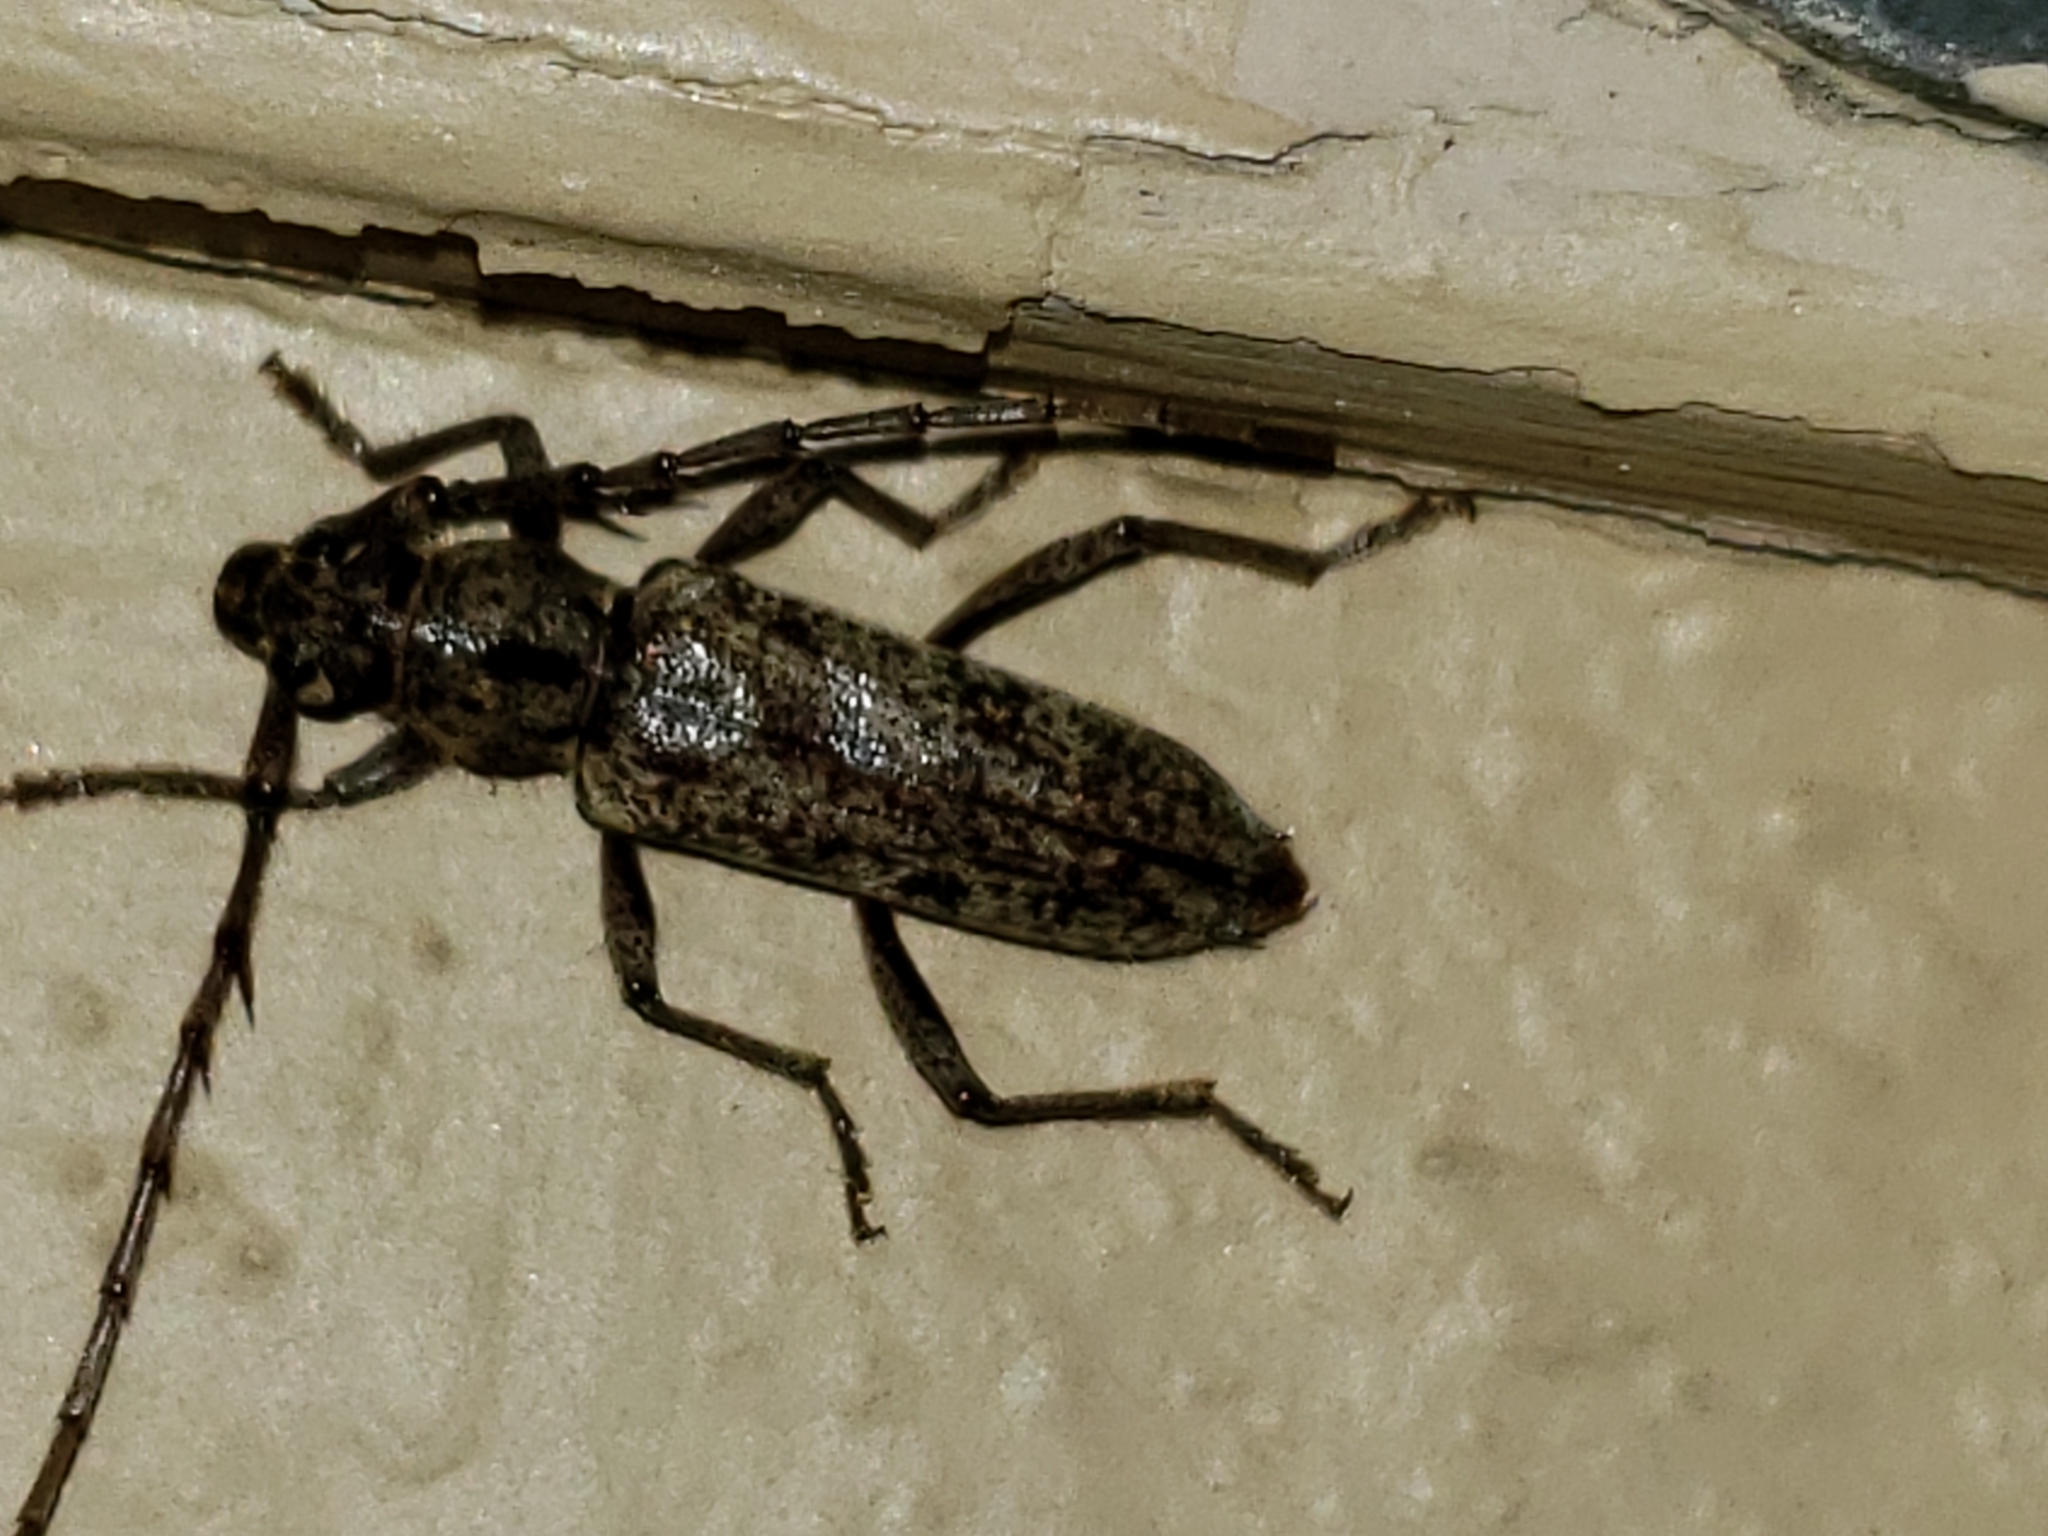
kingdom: Animalia
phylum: Arthropoda
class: Insecta
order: Coleoptera
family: Cerambycidae
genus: Elaphidion
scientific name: Elaphidion mucronatum
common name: Spined oak borer
